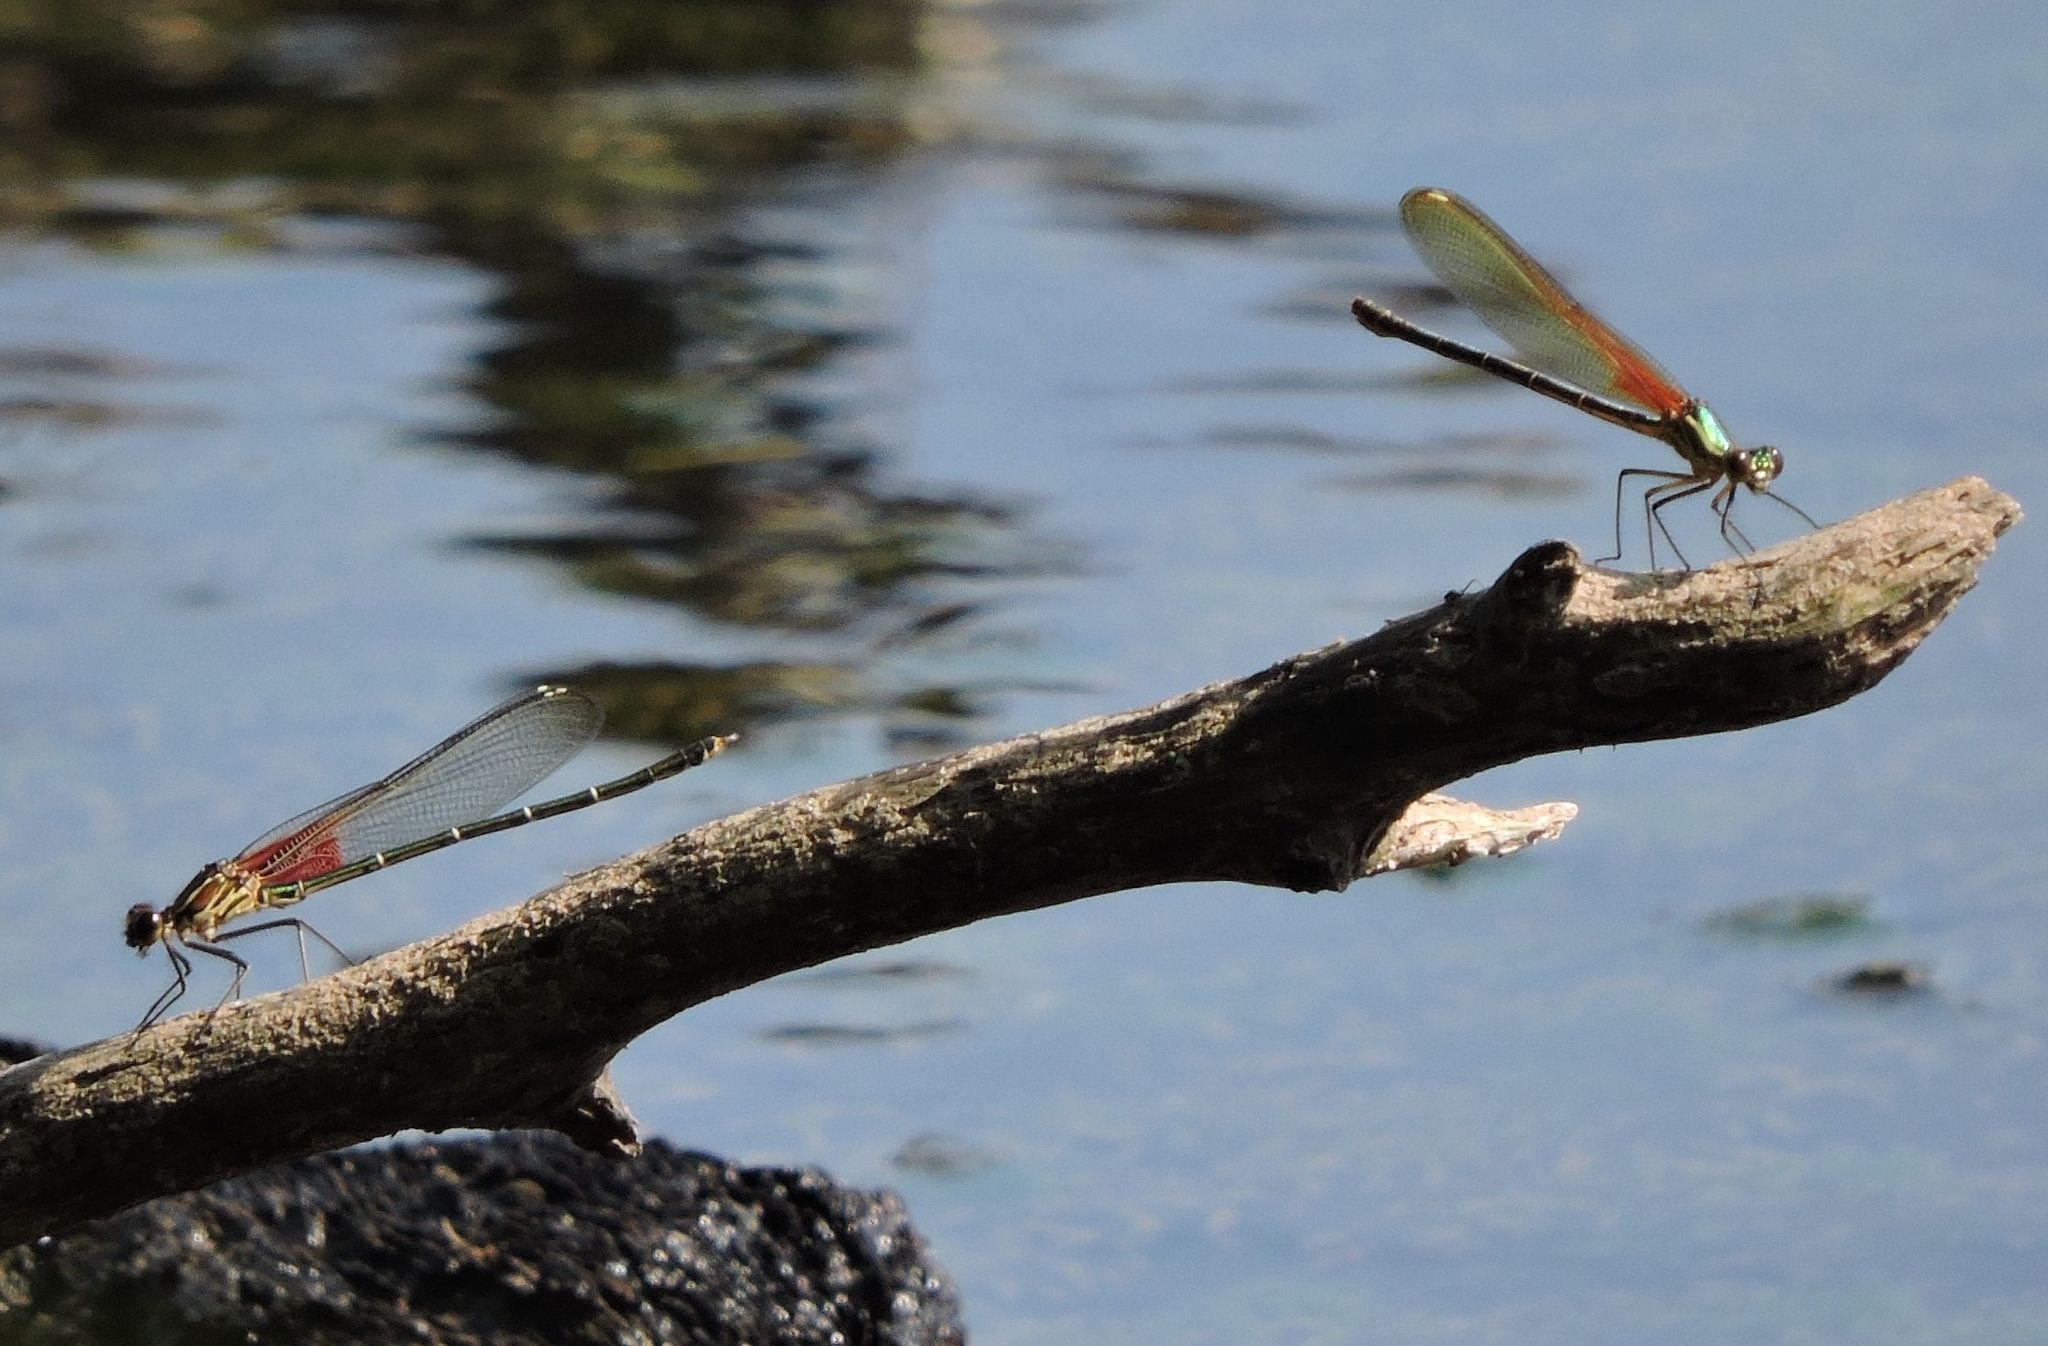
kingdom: Animalia
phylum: Arthropoda
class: Insecta
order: Odonata
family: Calopterygidae
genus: Hetaerina
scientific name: Hetaerina americana
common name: American rubyspot
